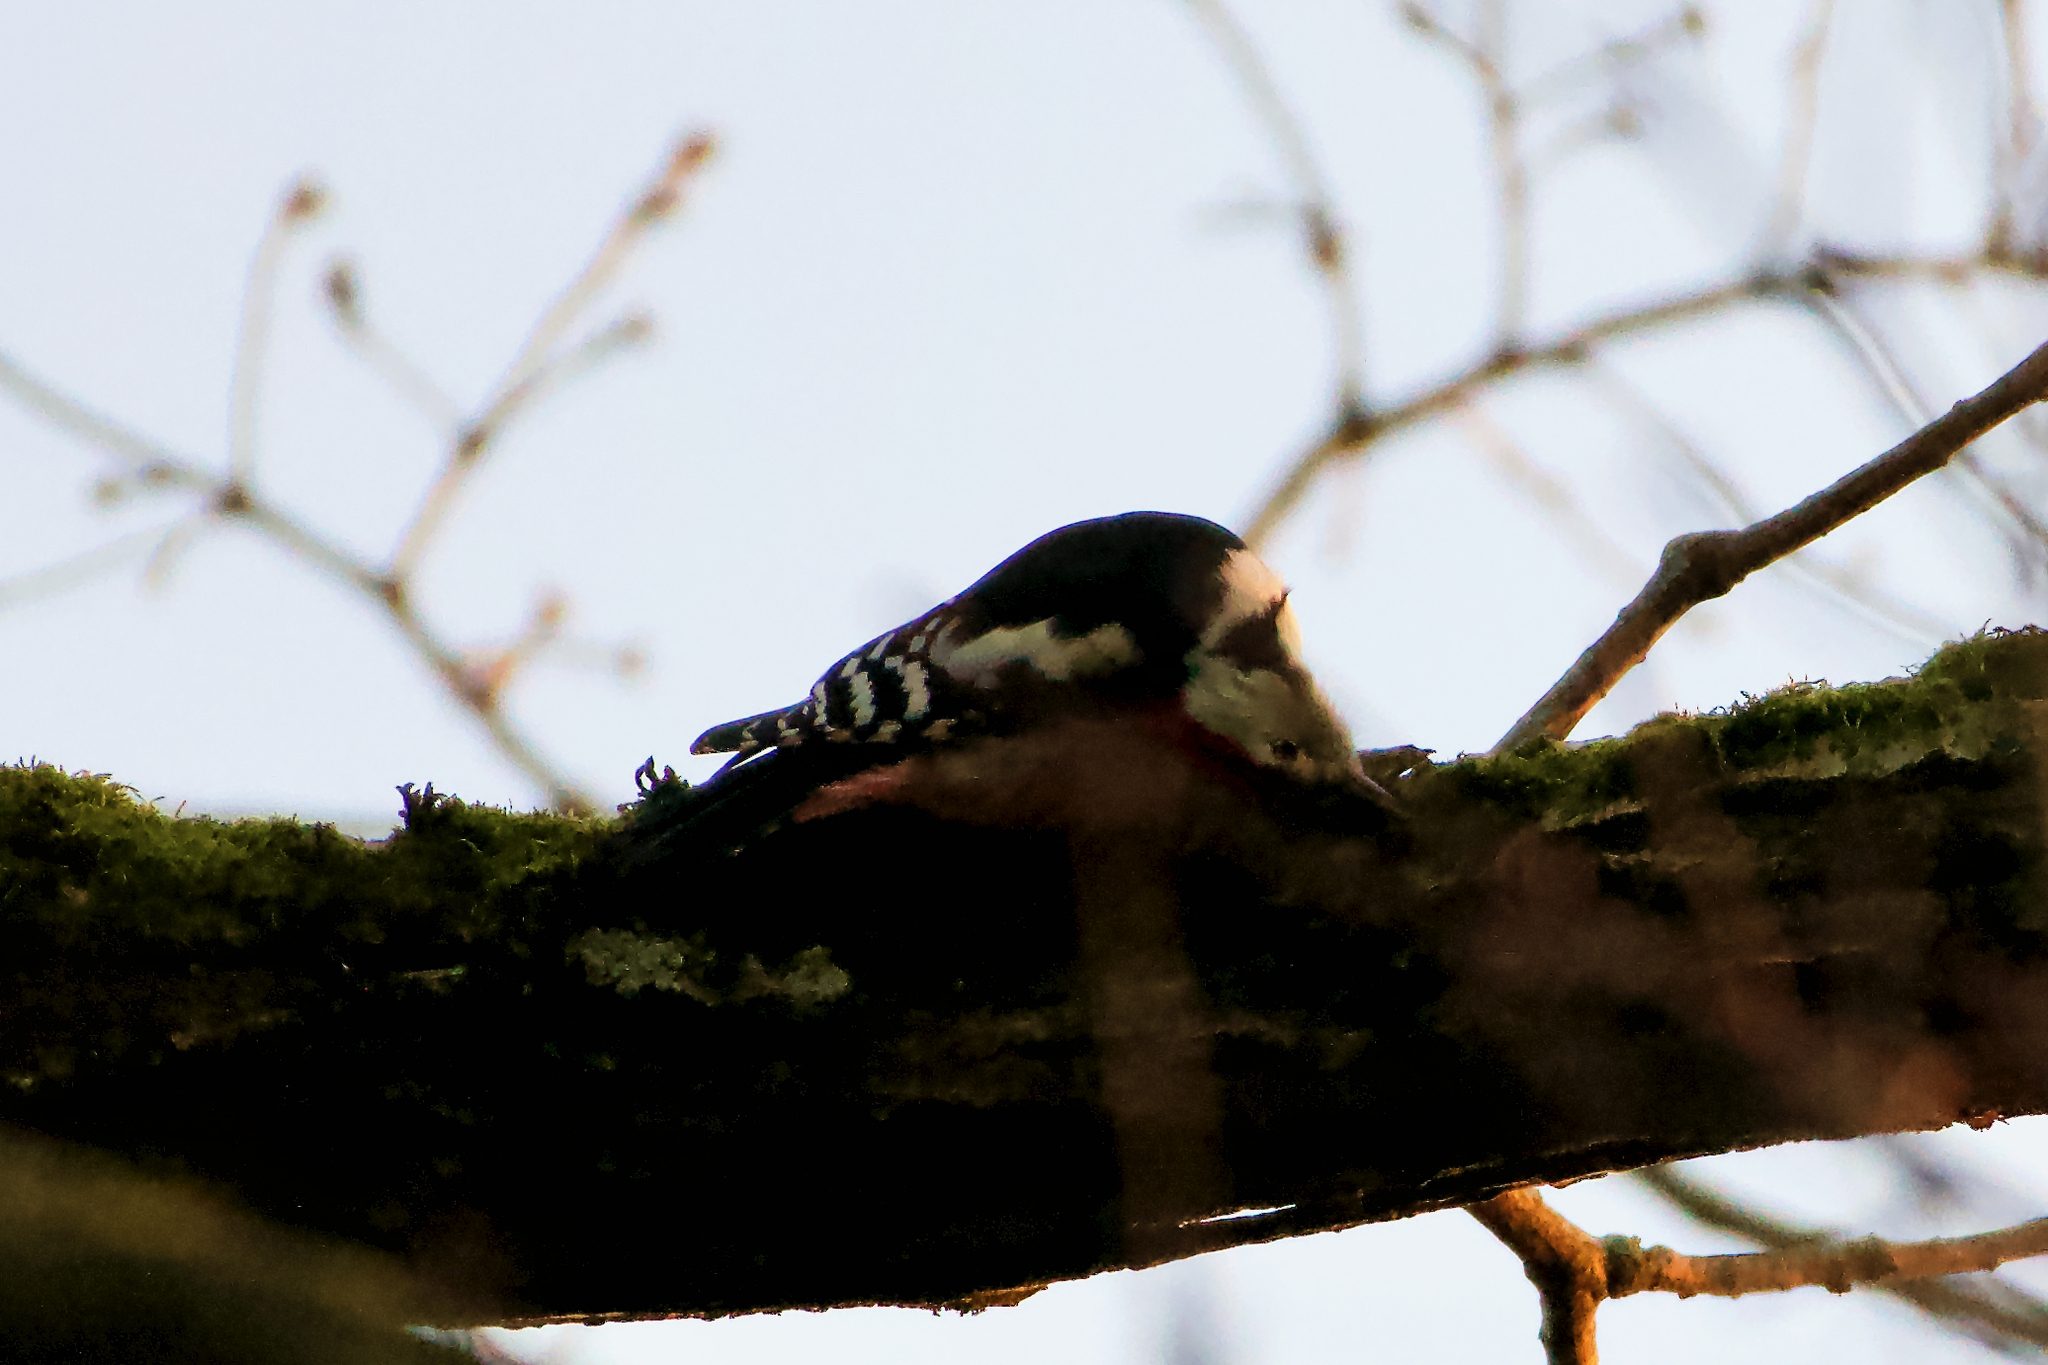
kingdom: Animalia
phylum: Chordata
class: Aves
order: Piciformes
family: Picidae
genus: Dendrocoptes
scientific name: Dendrocoptes medius
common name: Middle spotted woodpecker
